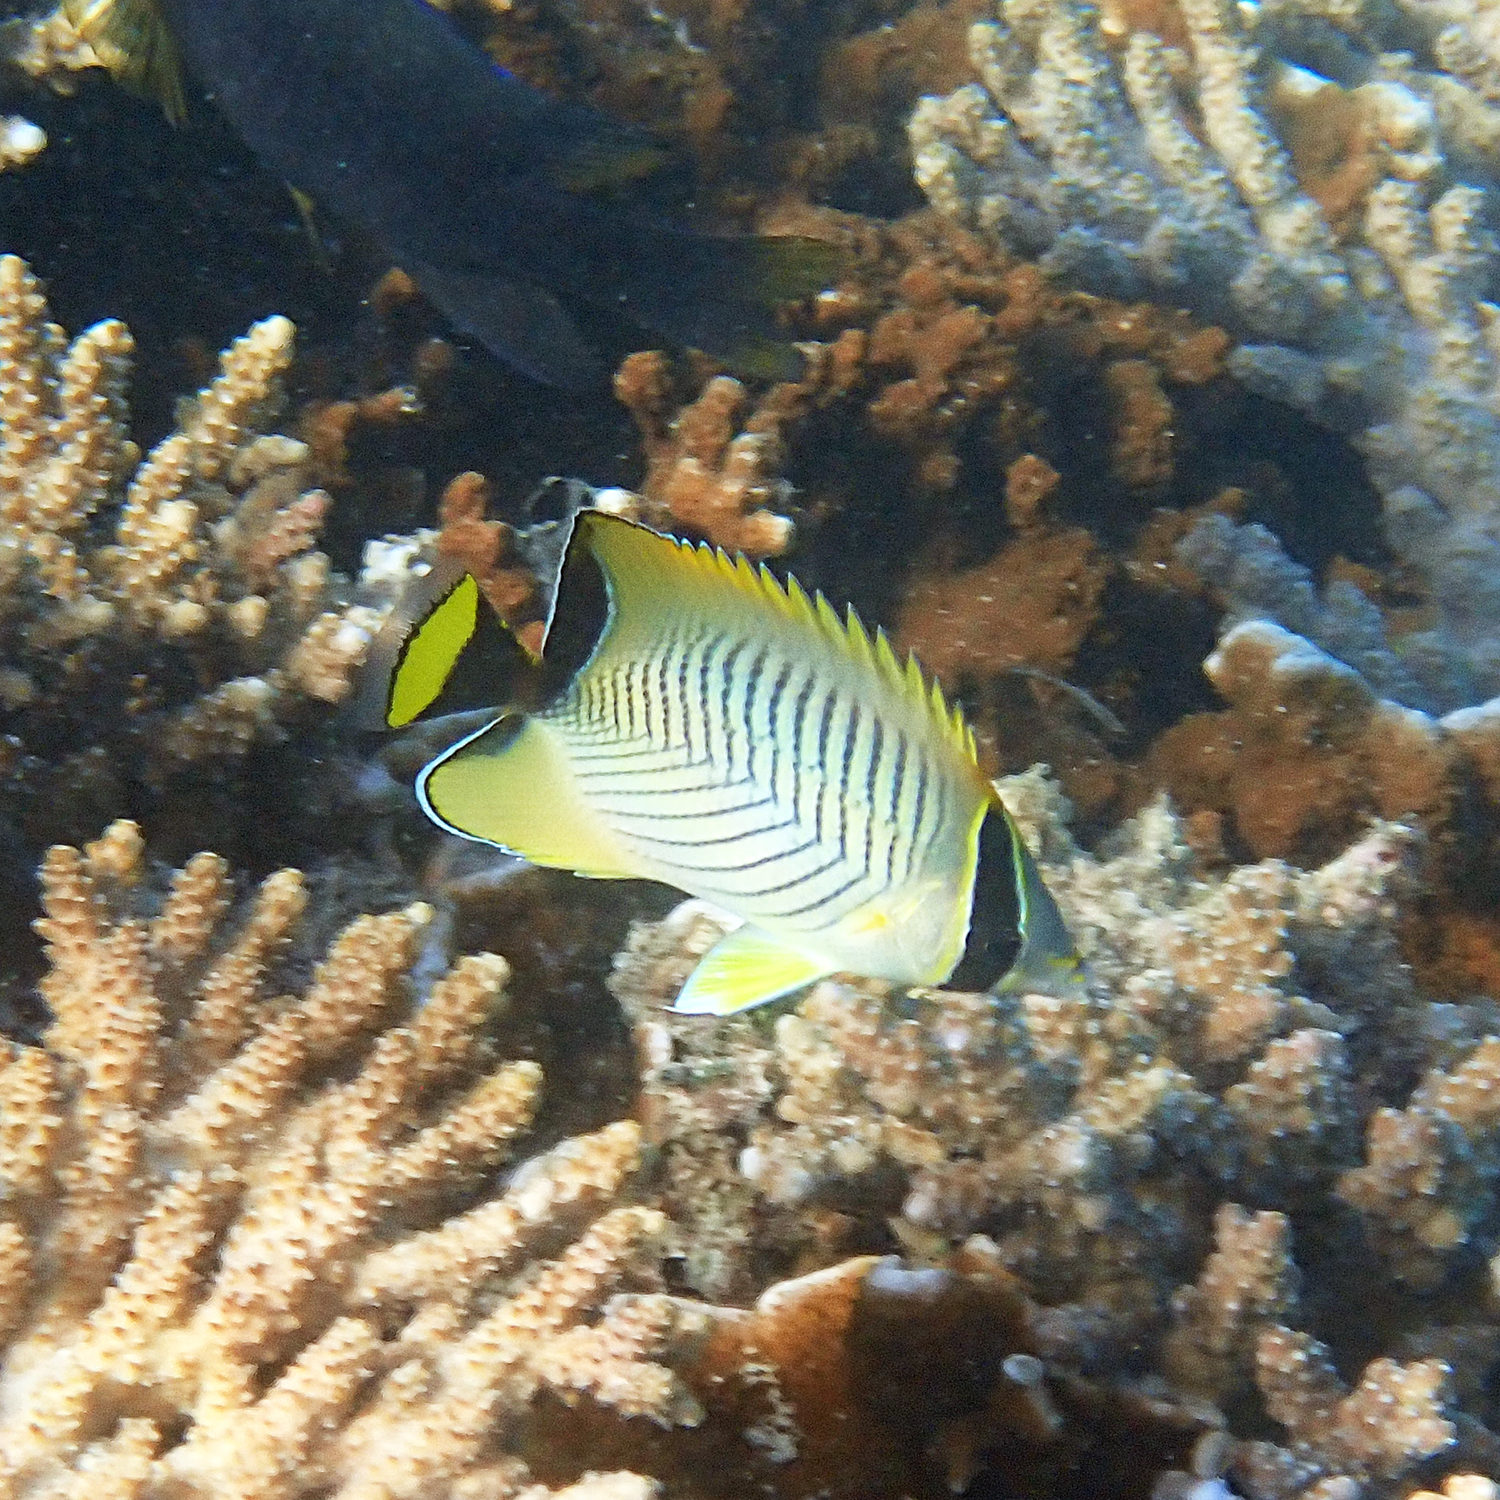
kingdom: Animalia
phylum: Chordata
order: Perciformes
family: Chaetodontidae
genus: Chaetodon
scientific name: Chaetodon trifascialis
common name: Chevroned butterflyfish
